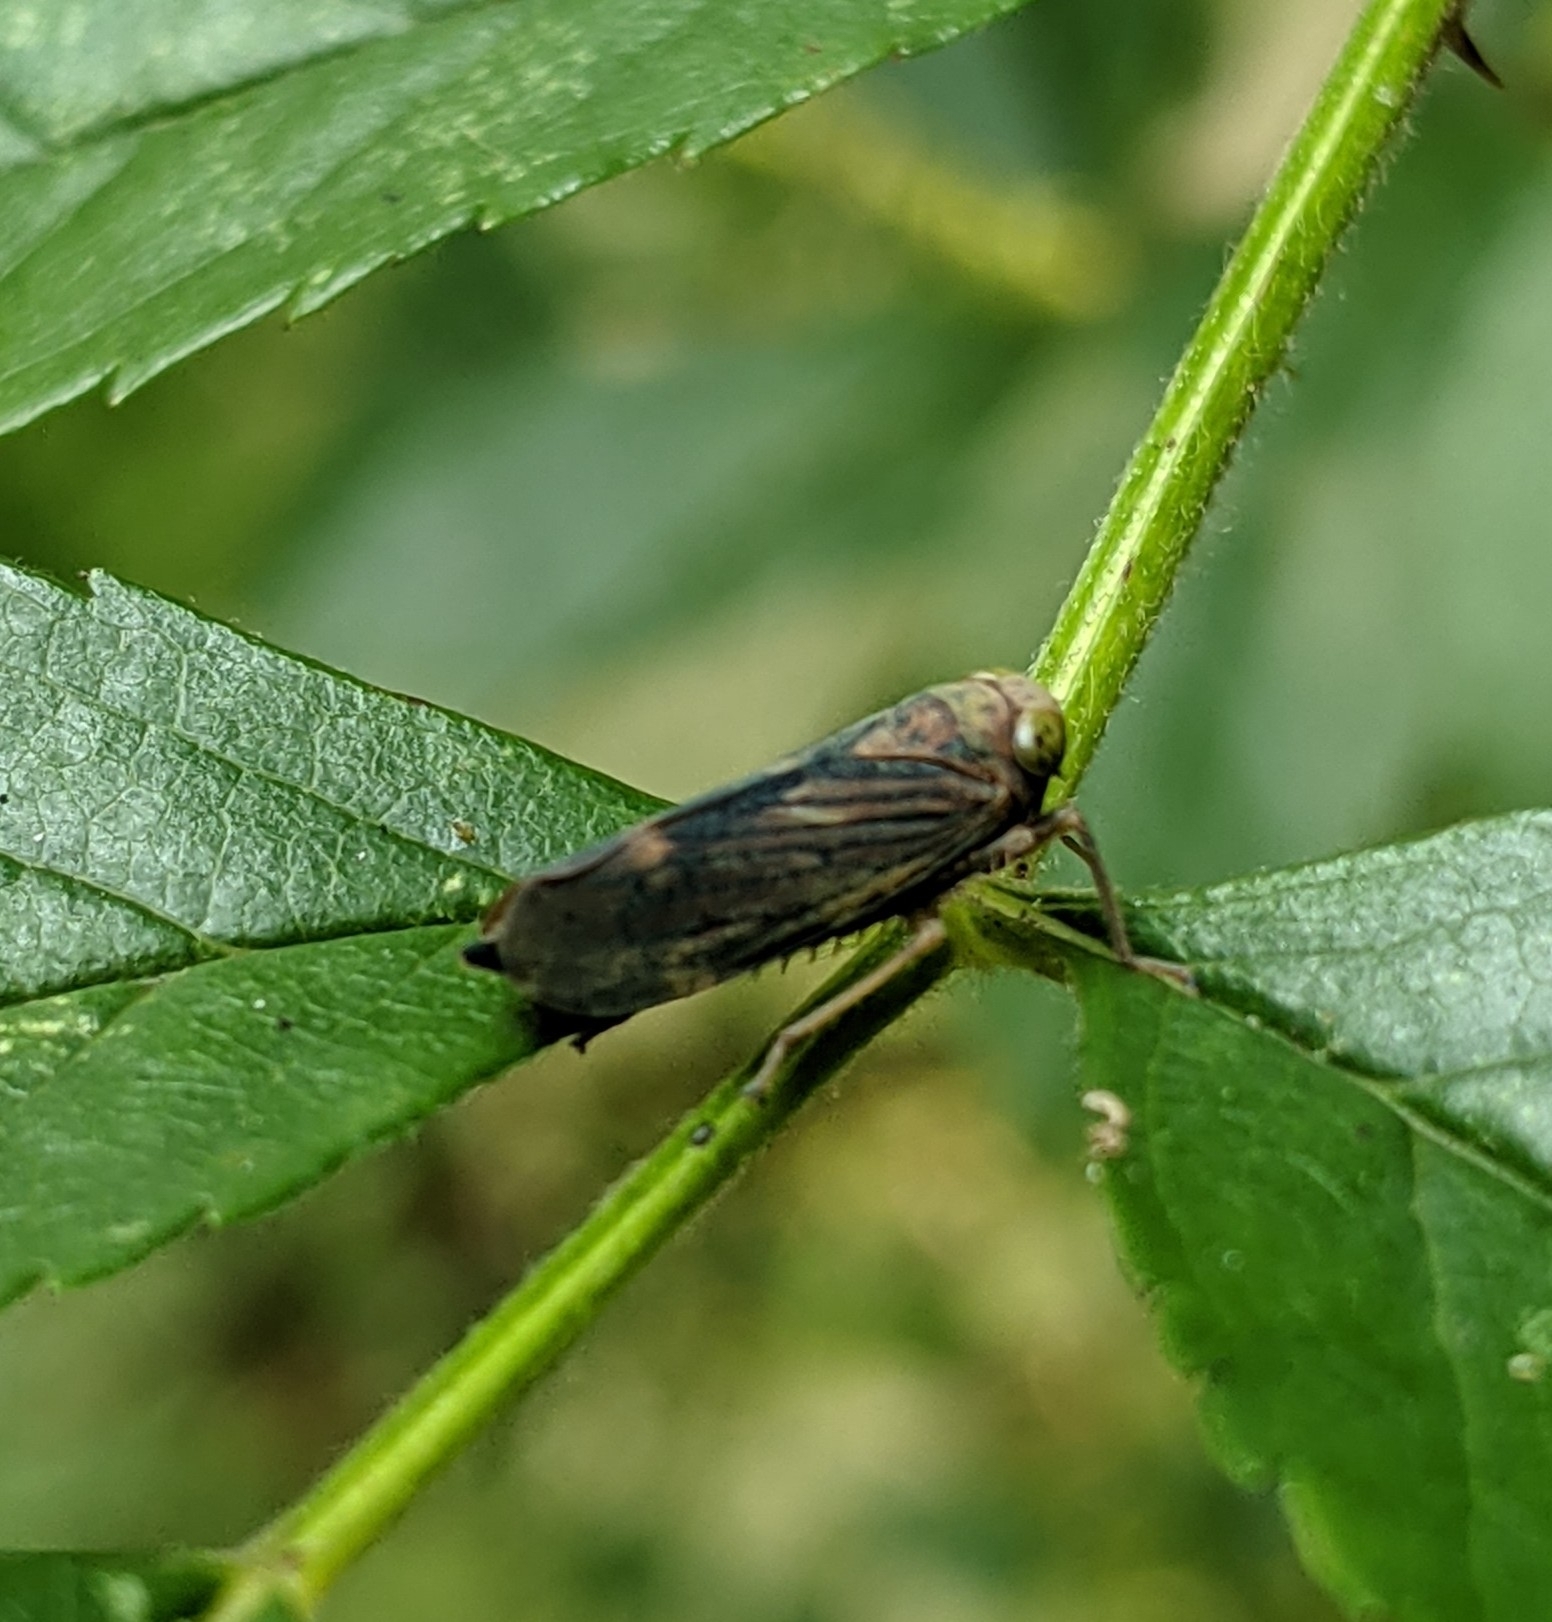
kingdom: Animalia
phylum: Arthropoda
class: Insecta
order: Hemiptera
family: Cicadellidae
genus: Jikradia
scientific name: Jikradia olitoria
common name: Coppery leafhopper
